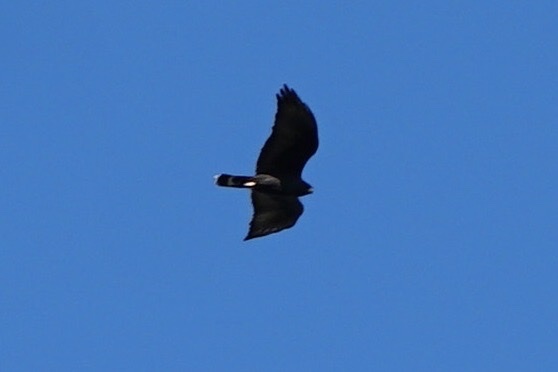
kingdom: Animalia
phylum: Chordata
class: Aves
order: Accipitriformes
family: Accipitridae
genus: Buteo
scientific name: Buteo albonotatus
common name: Zone-tailed hawk
